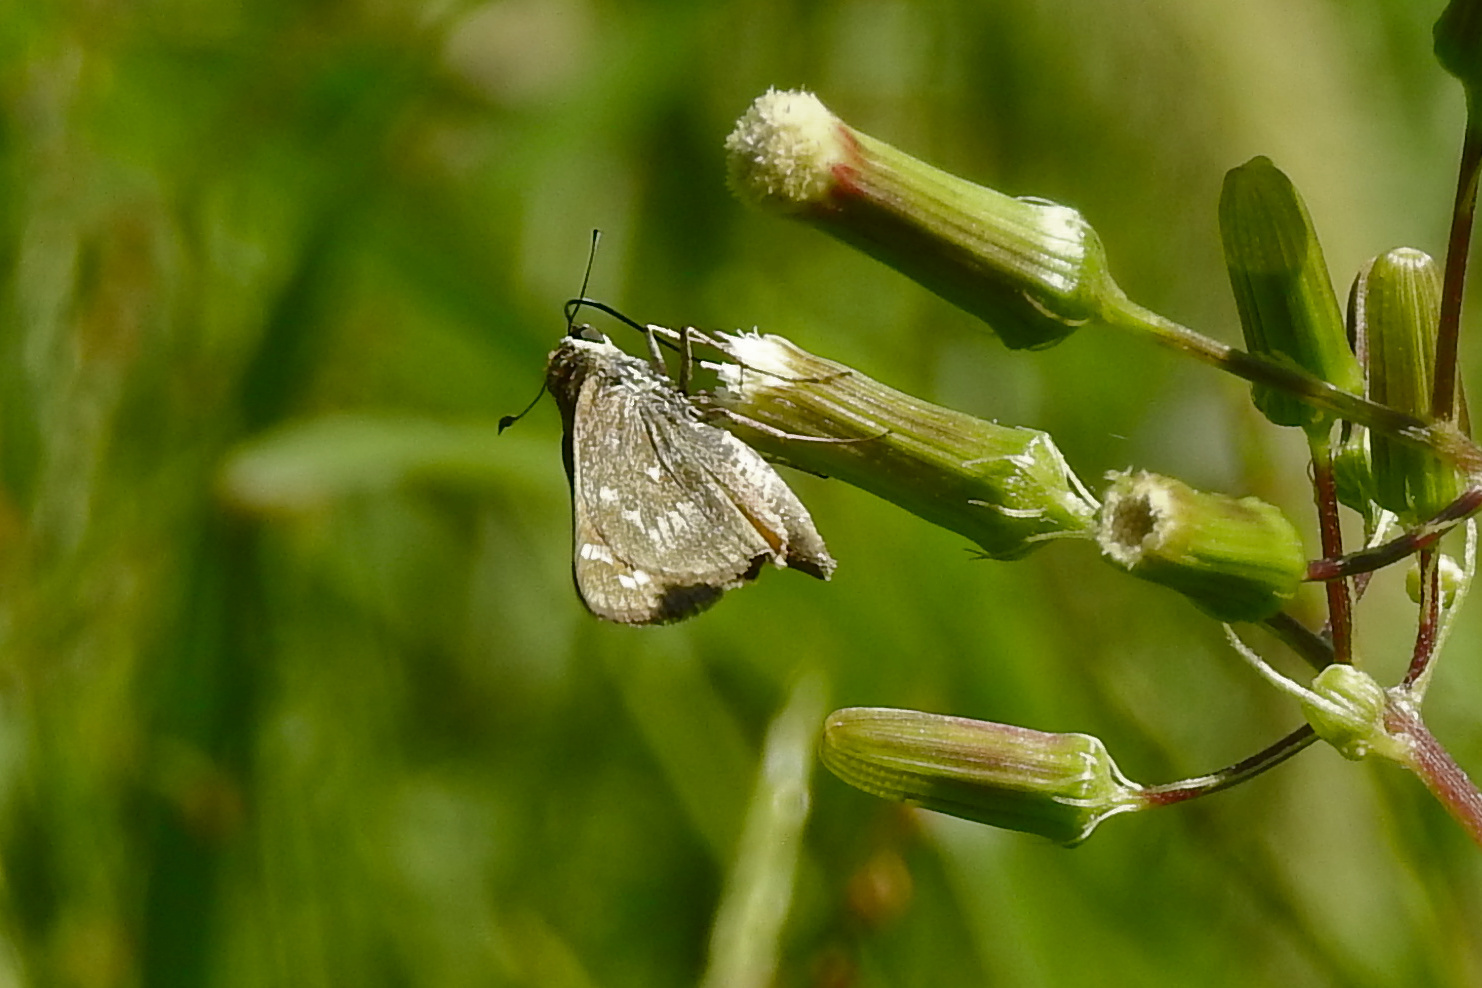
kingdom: Animalia
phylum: Arthropoda
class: Insecta
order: Lepidoptera
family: Hesperiidae
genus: Atalopedes
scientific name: Atalopedes
